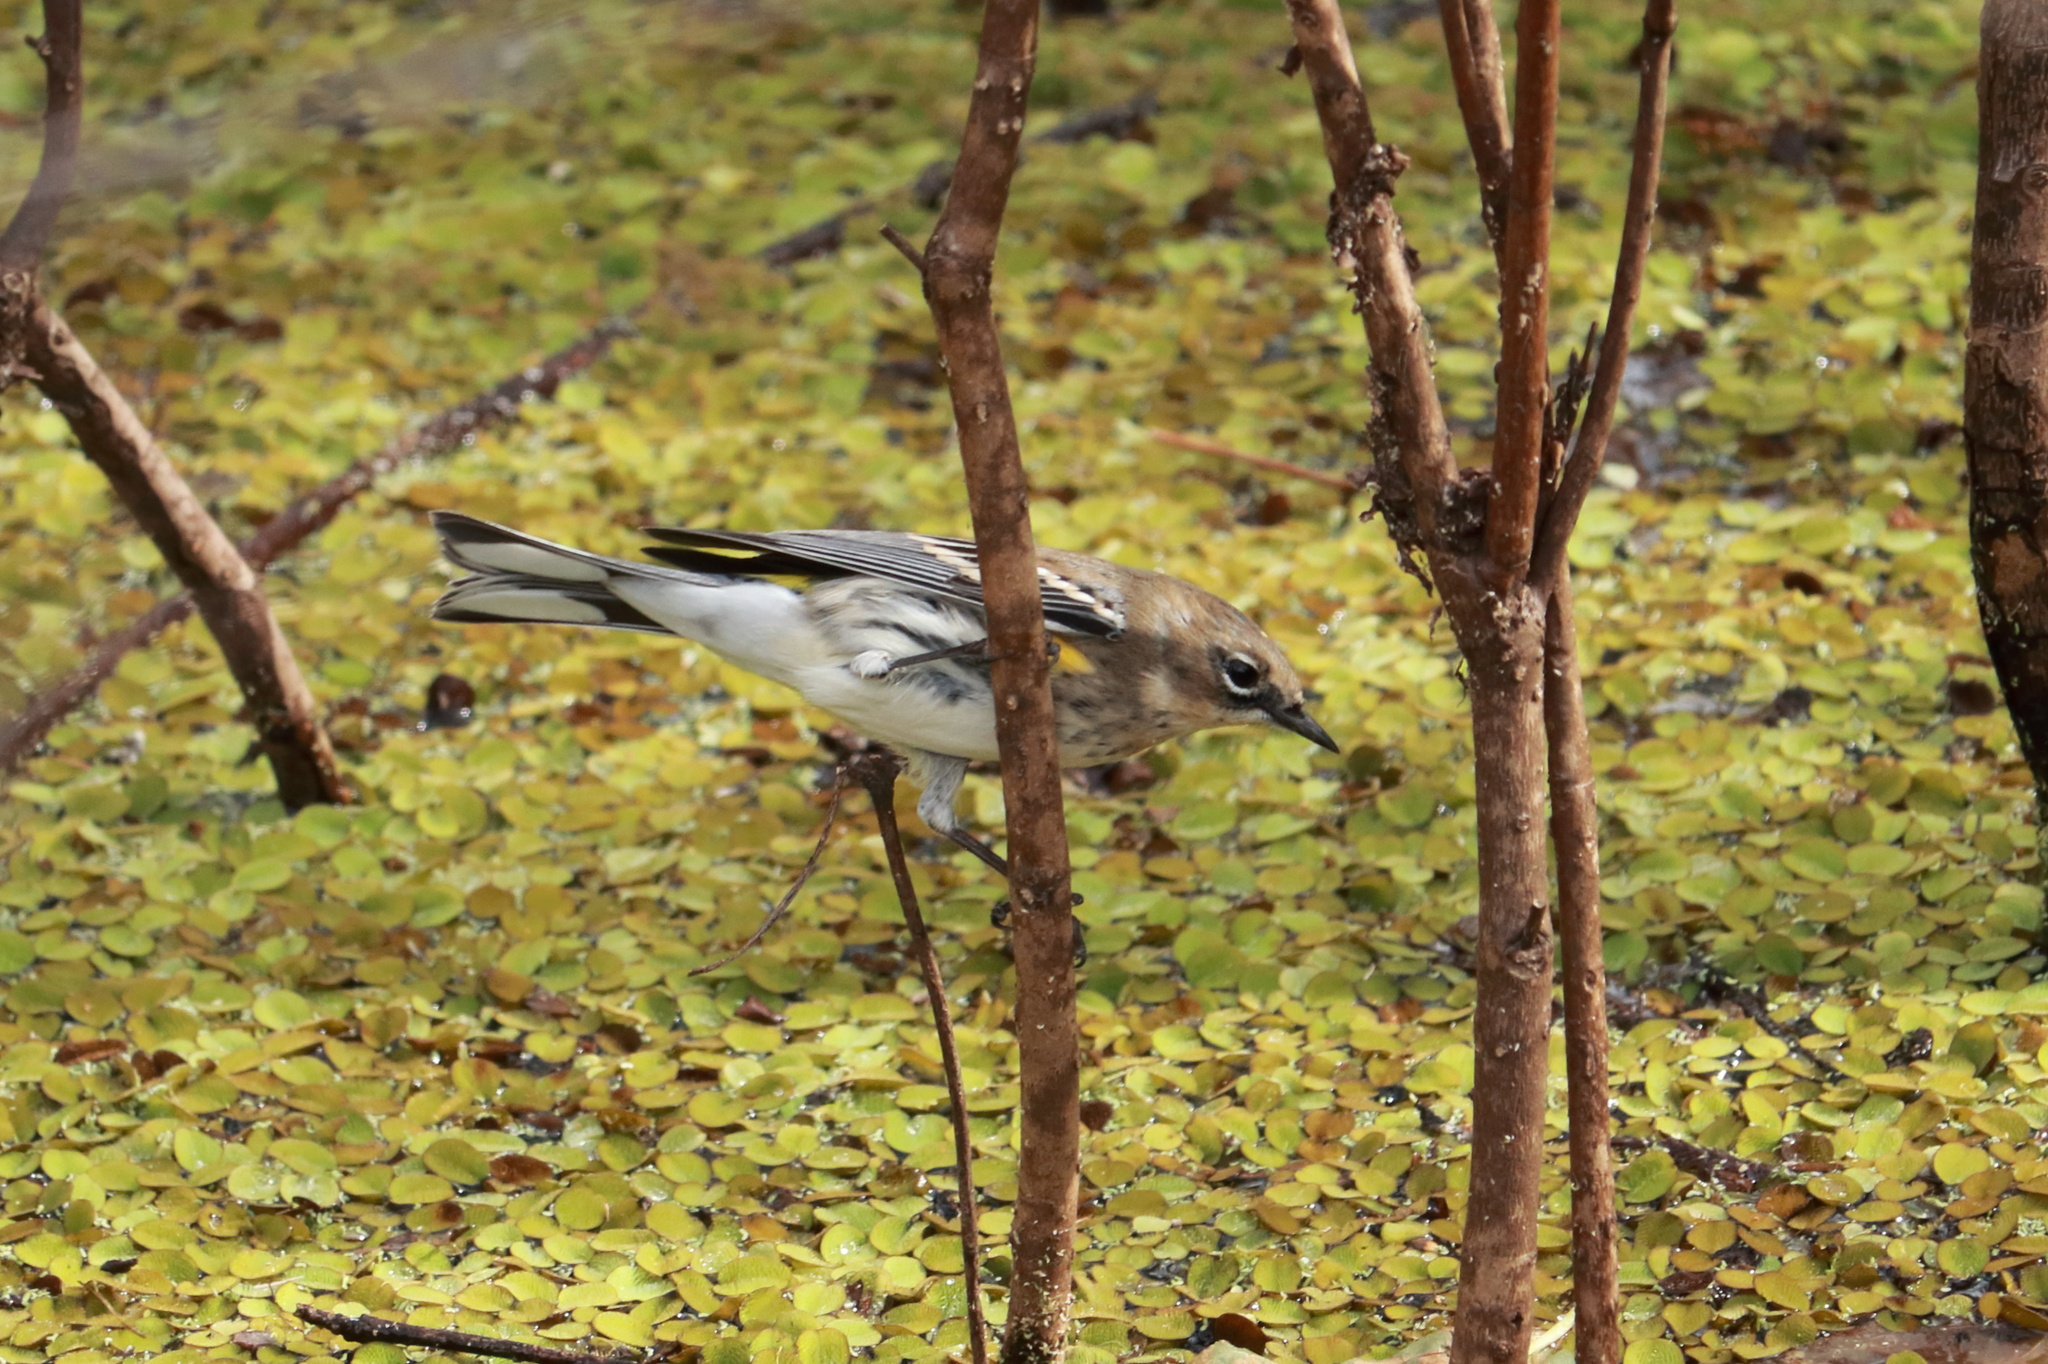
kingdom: Animalia
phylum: Chordata
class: Aves
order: Passeriformes
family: Parulidae
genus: Setophaga
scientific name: Setophaga coronata
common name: Myrtle warbler
